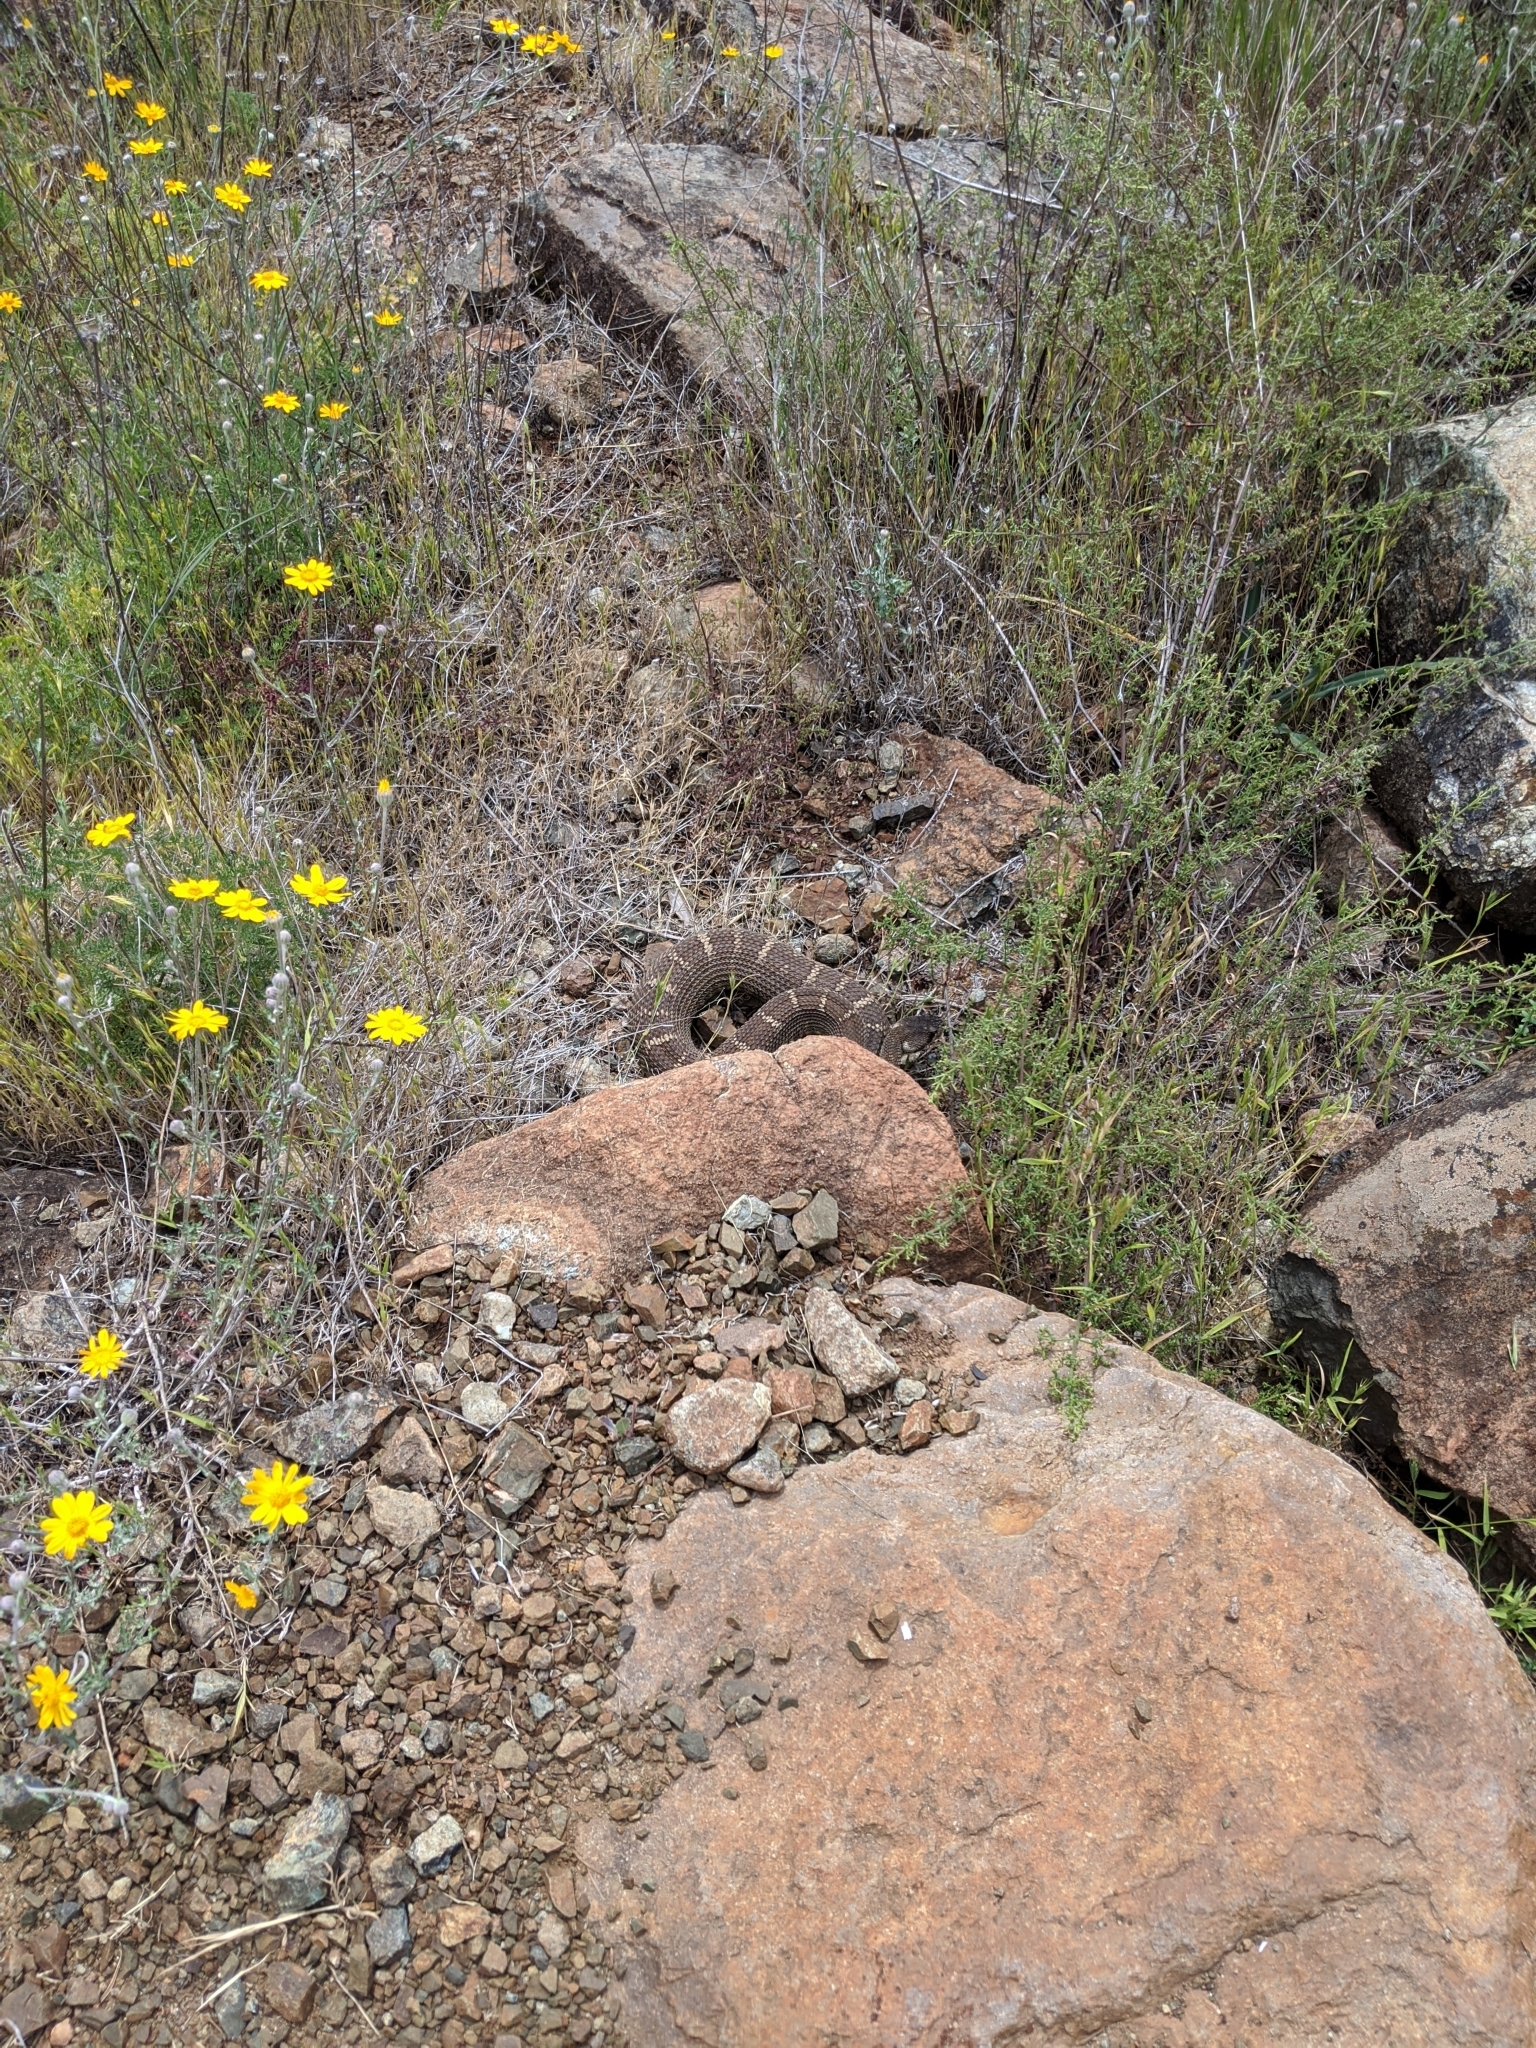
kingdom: Animalia
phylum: Chordata
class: Squamata
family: Viperidae
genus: Crotalus
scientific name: Crotalus oreganus
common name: Abyssus
